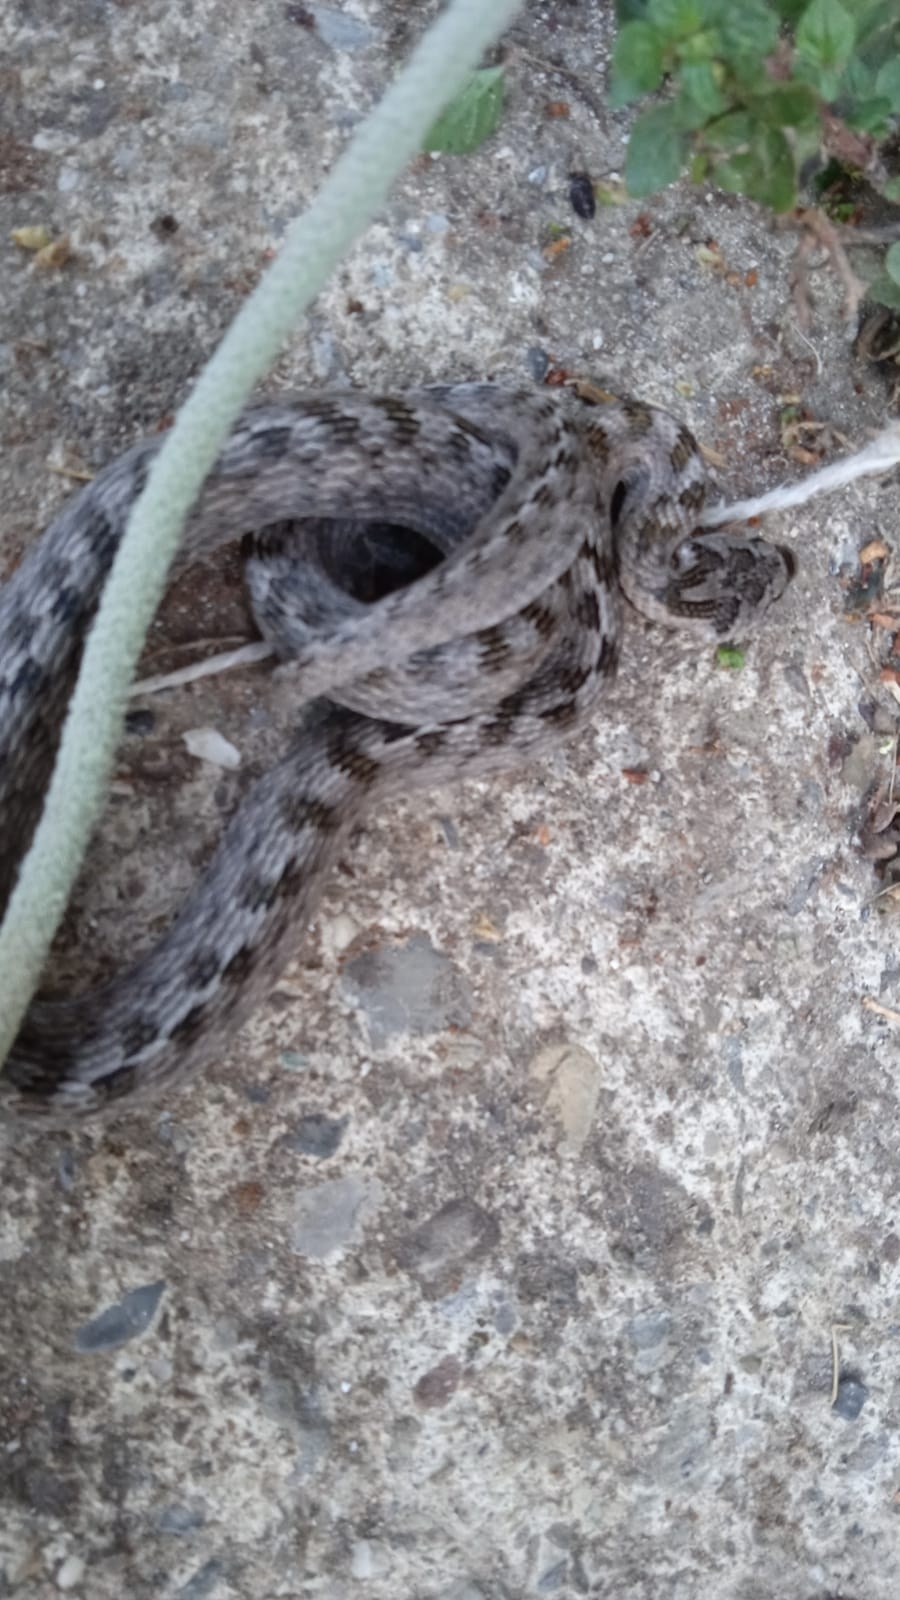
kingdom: Animalia
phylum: Chordata
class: Squamata
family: Colubridae
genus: Coronella
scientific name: Coronella girondica
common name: Southern smooth snake
